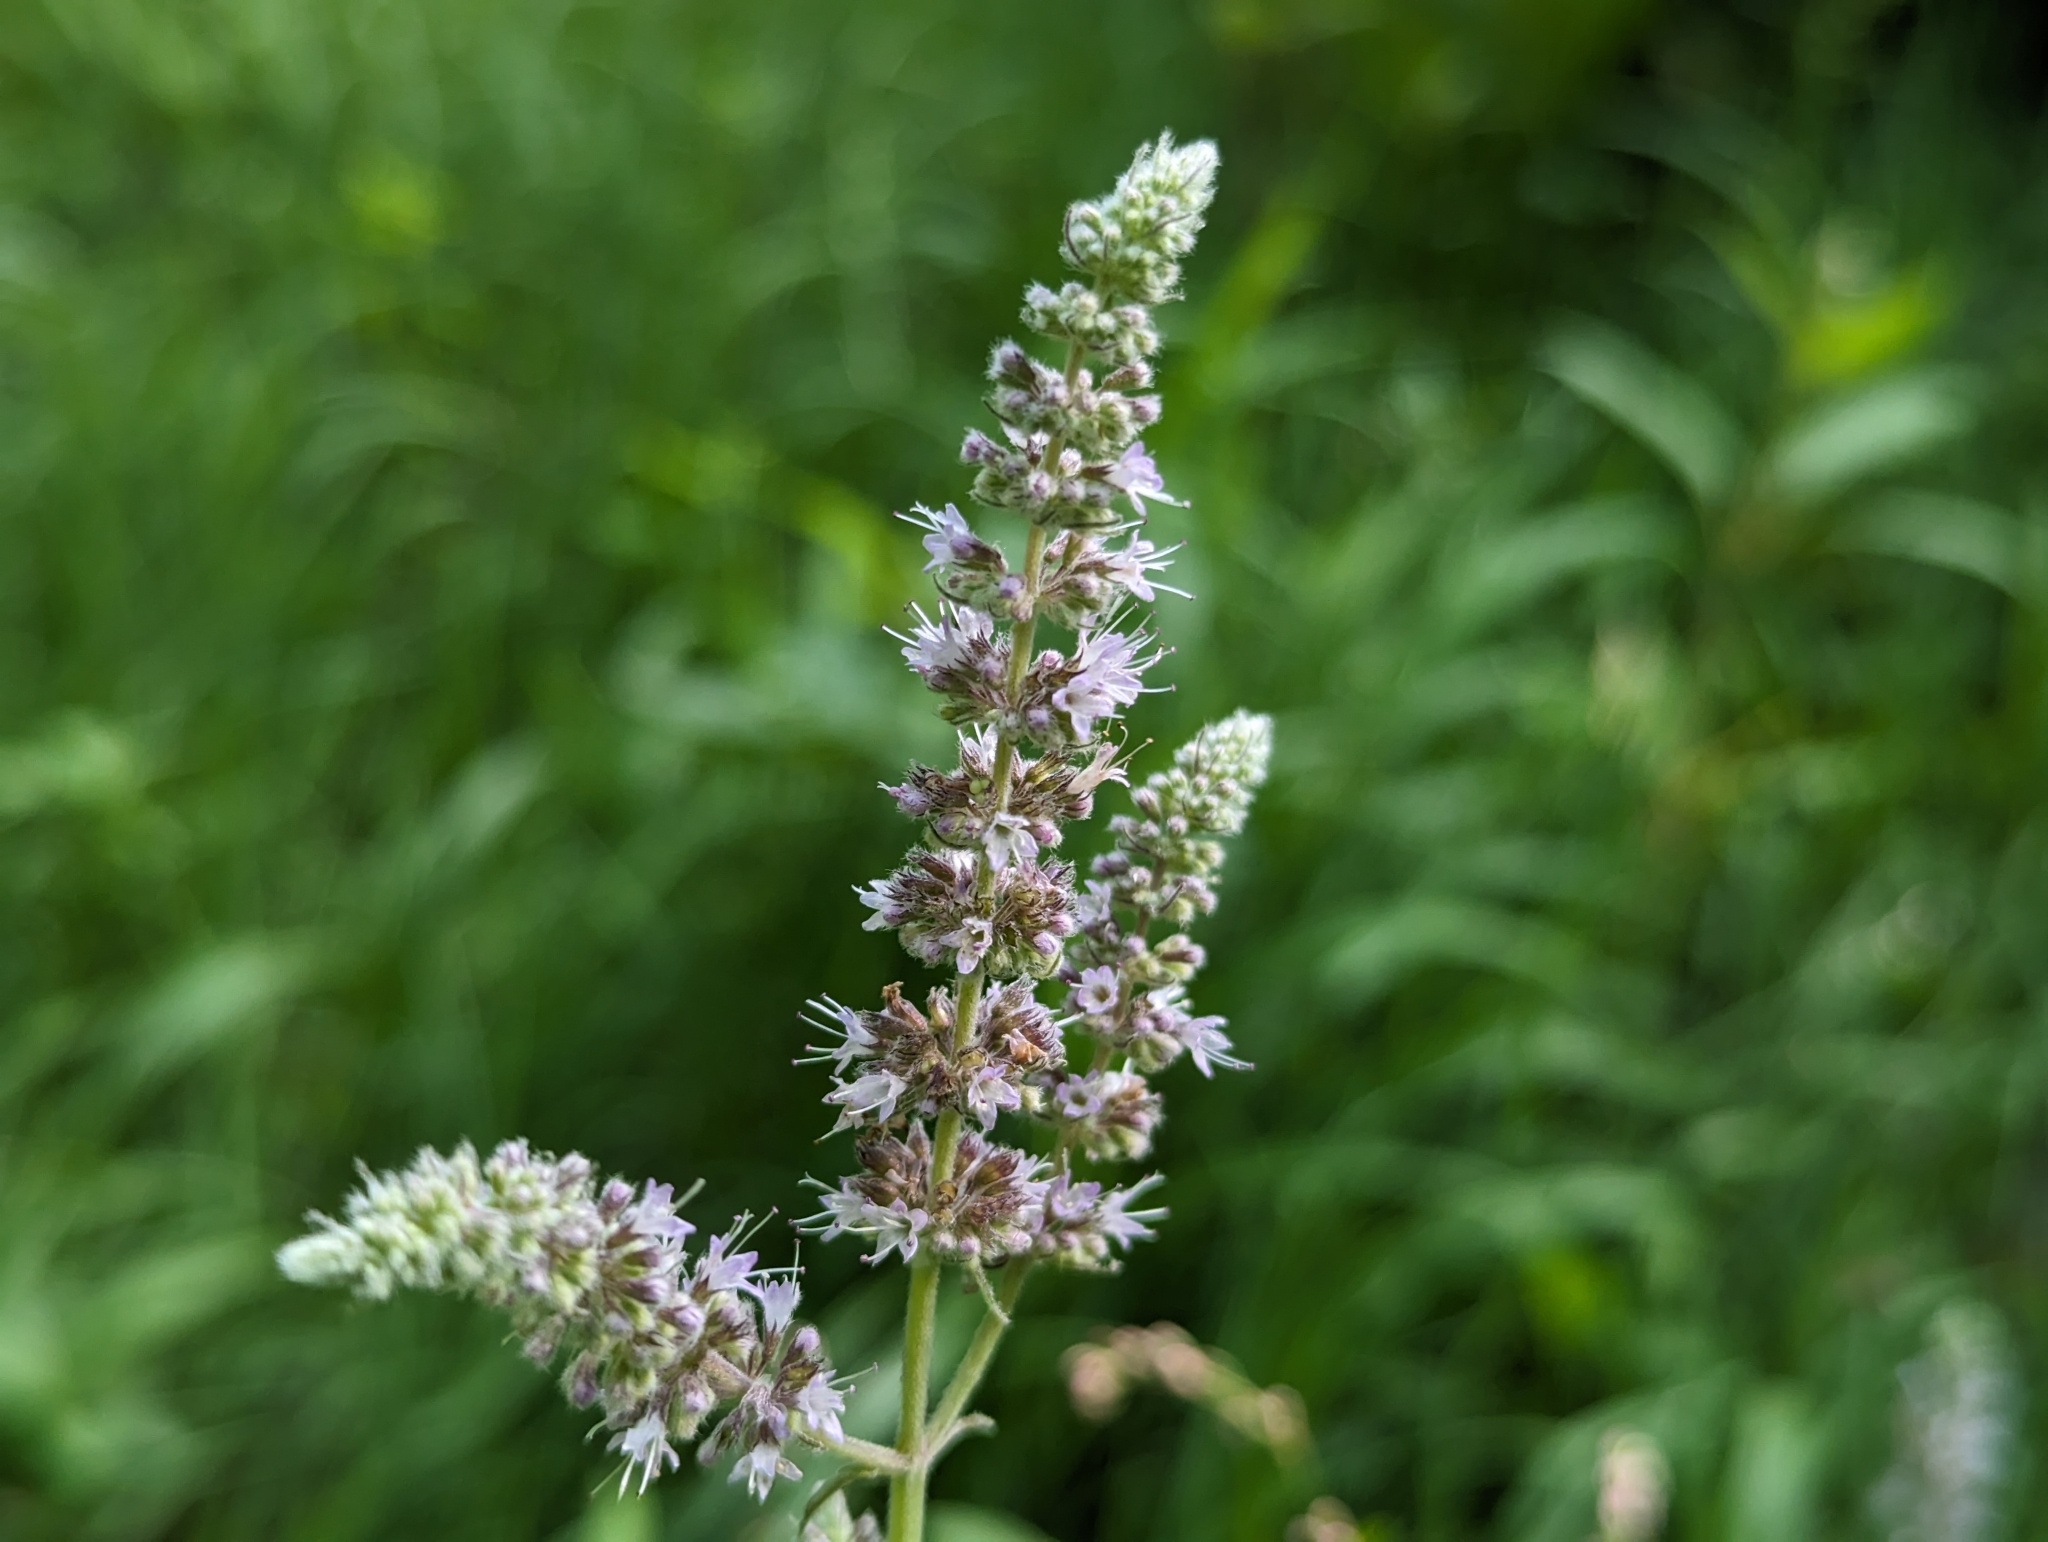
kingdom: Plantae
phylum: Tracheophyta
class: Magnoliopsida
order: Lamiales
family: Lamiaceae
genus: Mentha
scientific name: Mentha longifolia
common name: Horse mint
